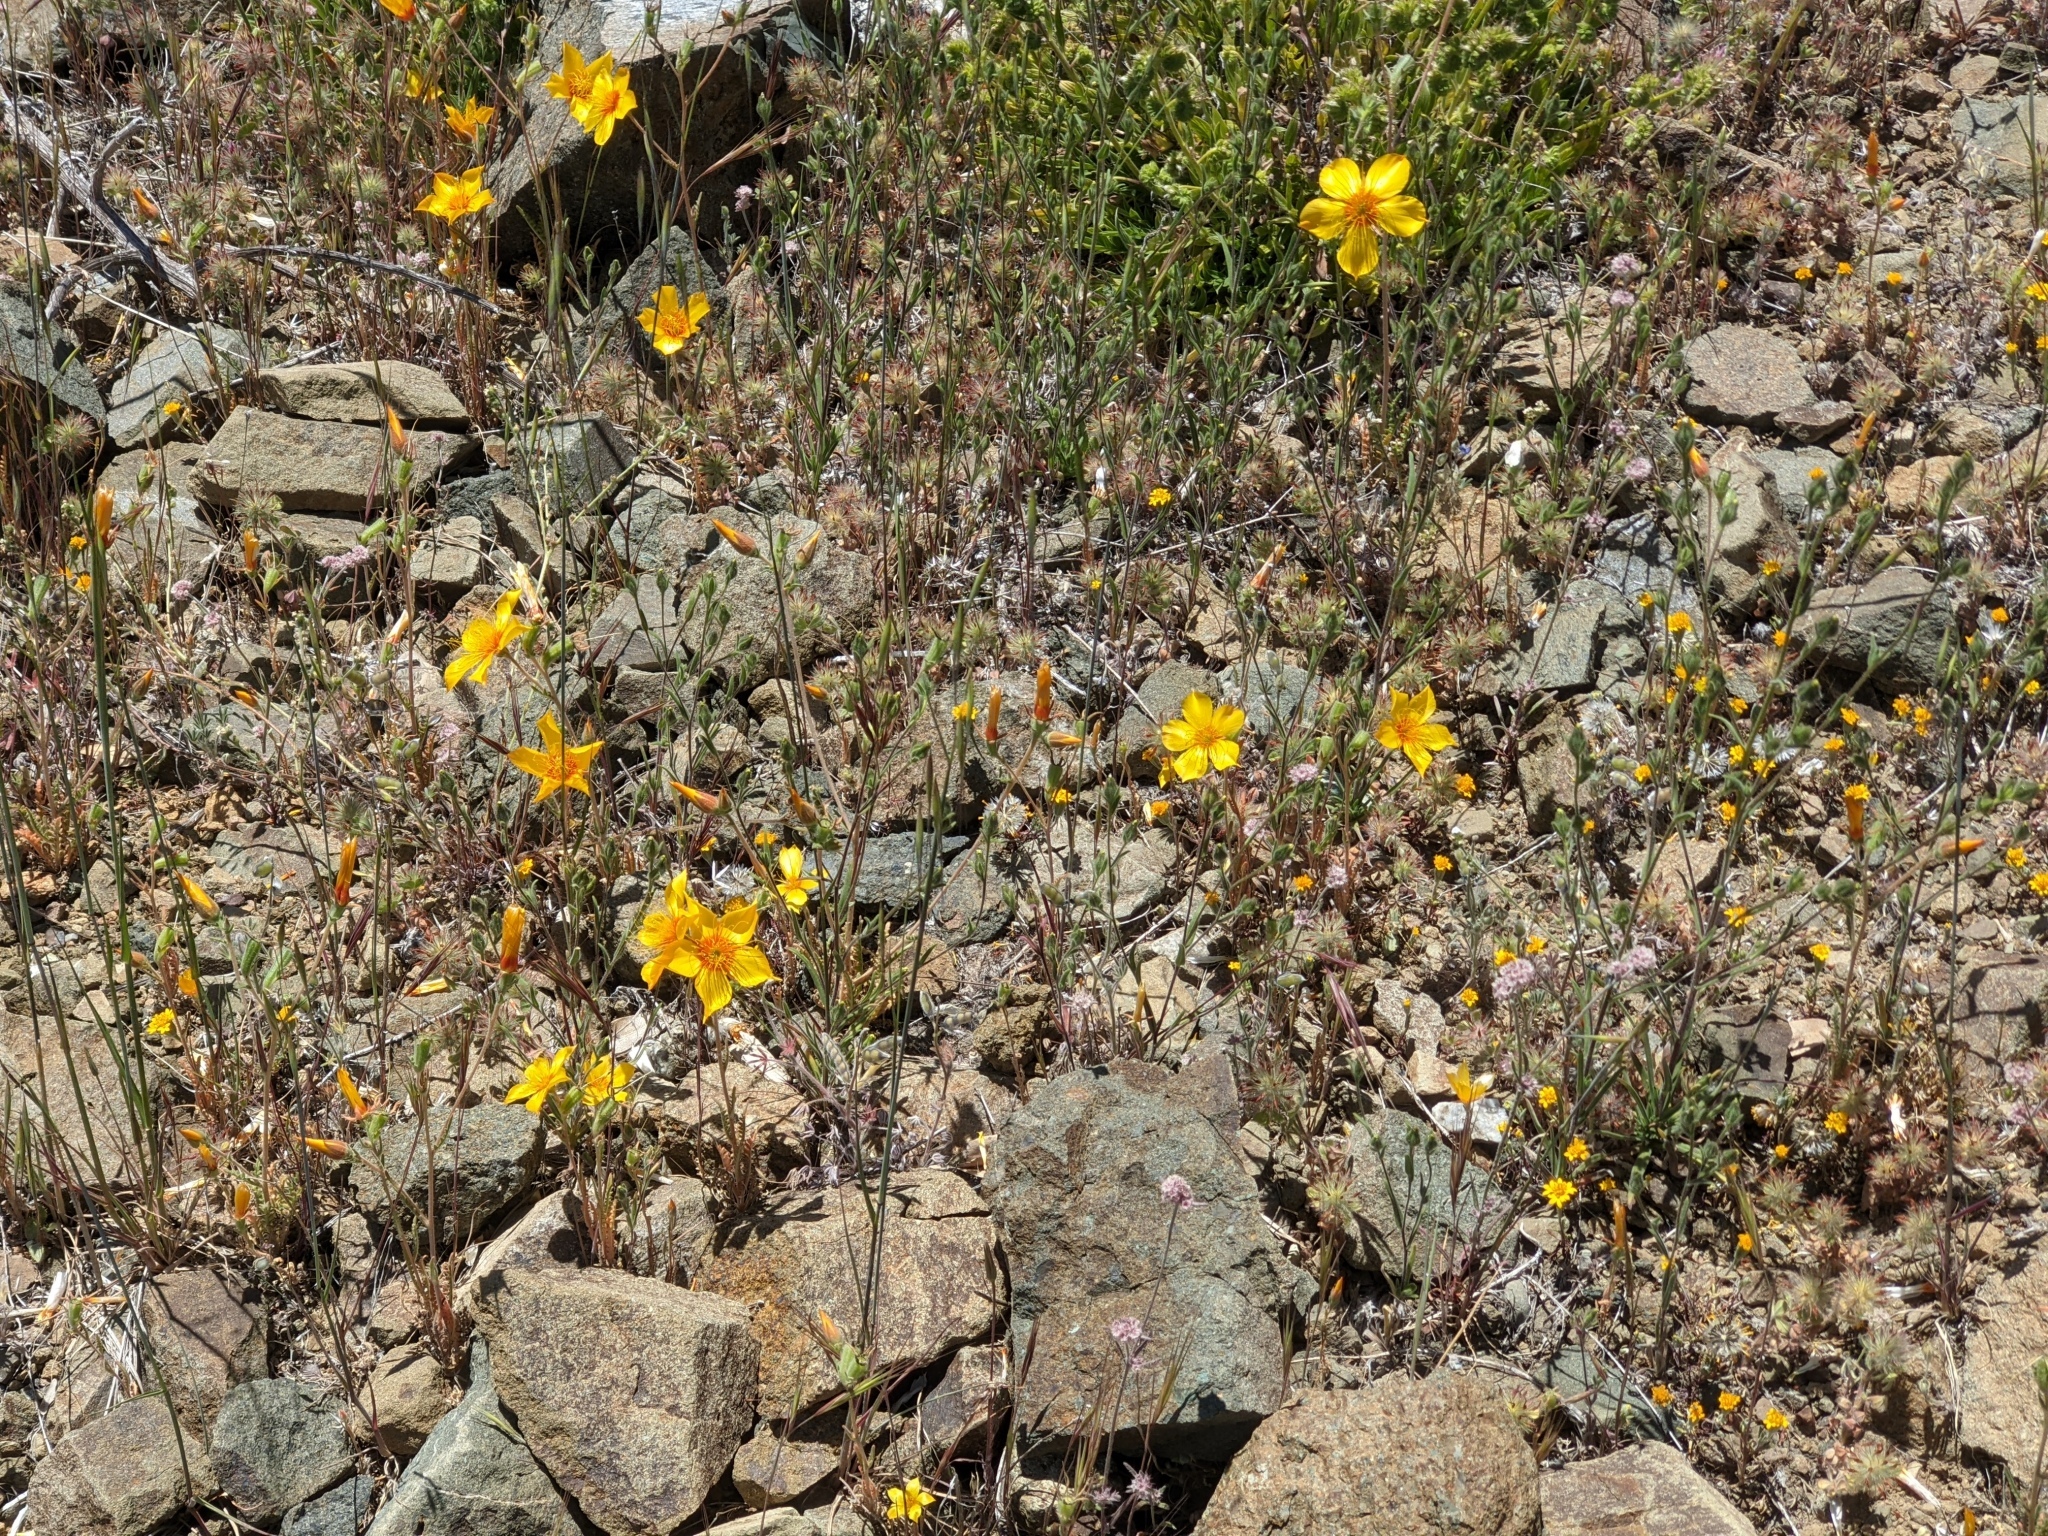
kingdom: Plantae
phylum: Tracheophyta
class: Magnoliopsida
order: Cornales
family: Loasaceae
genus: Mentzelia
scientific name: Mentzelia lindleyi
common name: Golden bartonia
